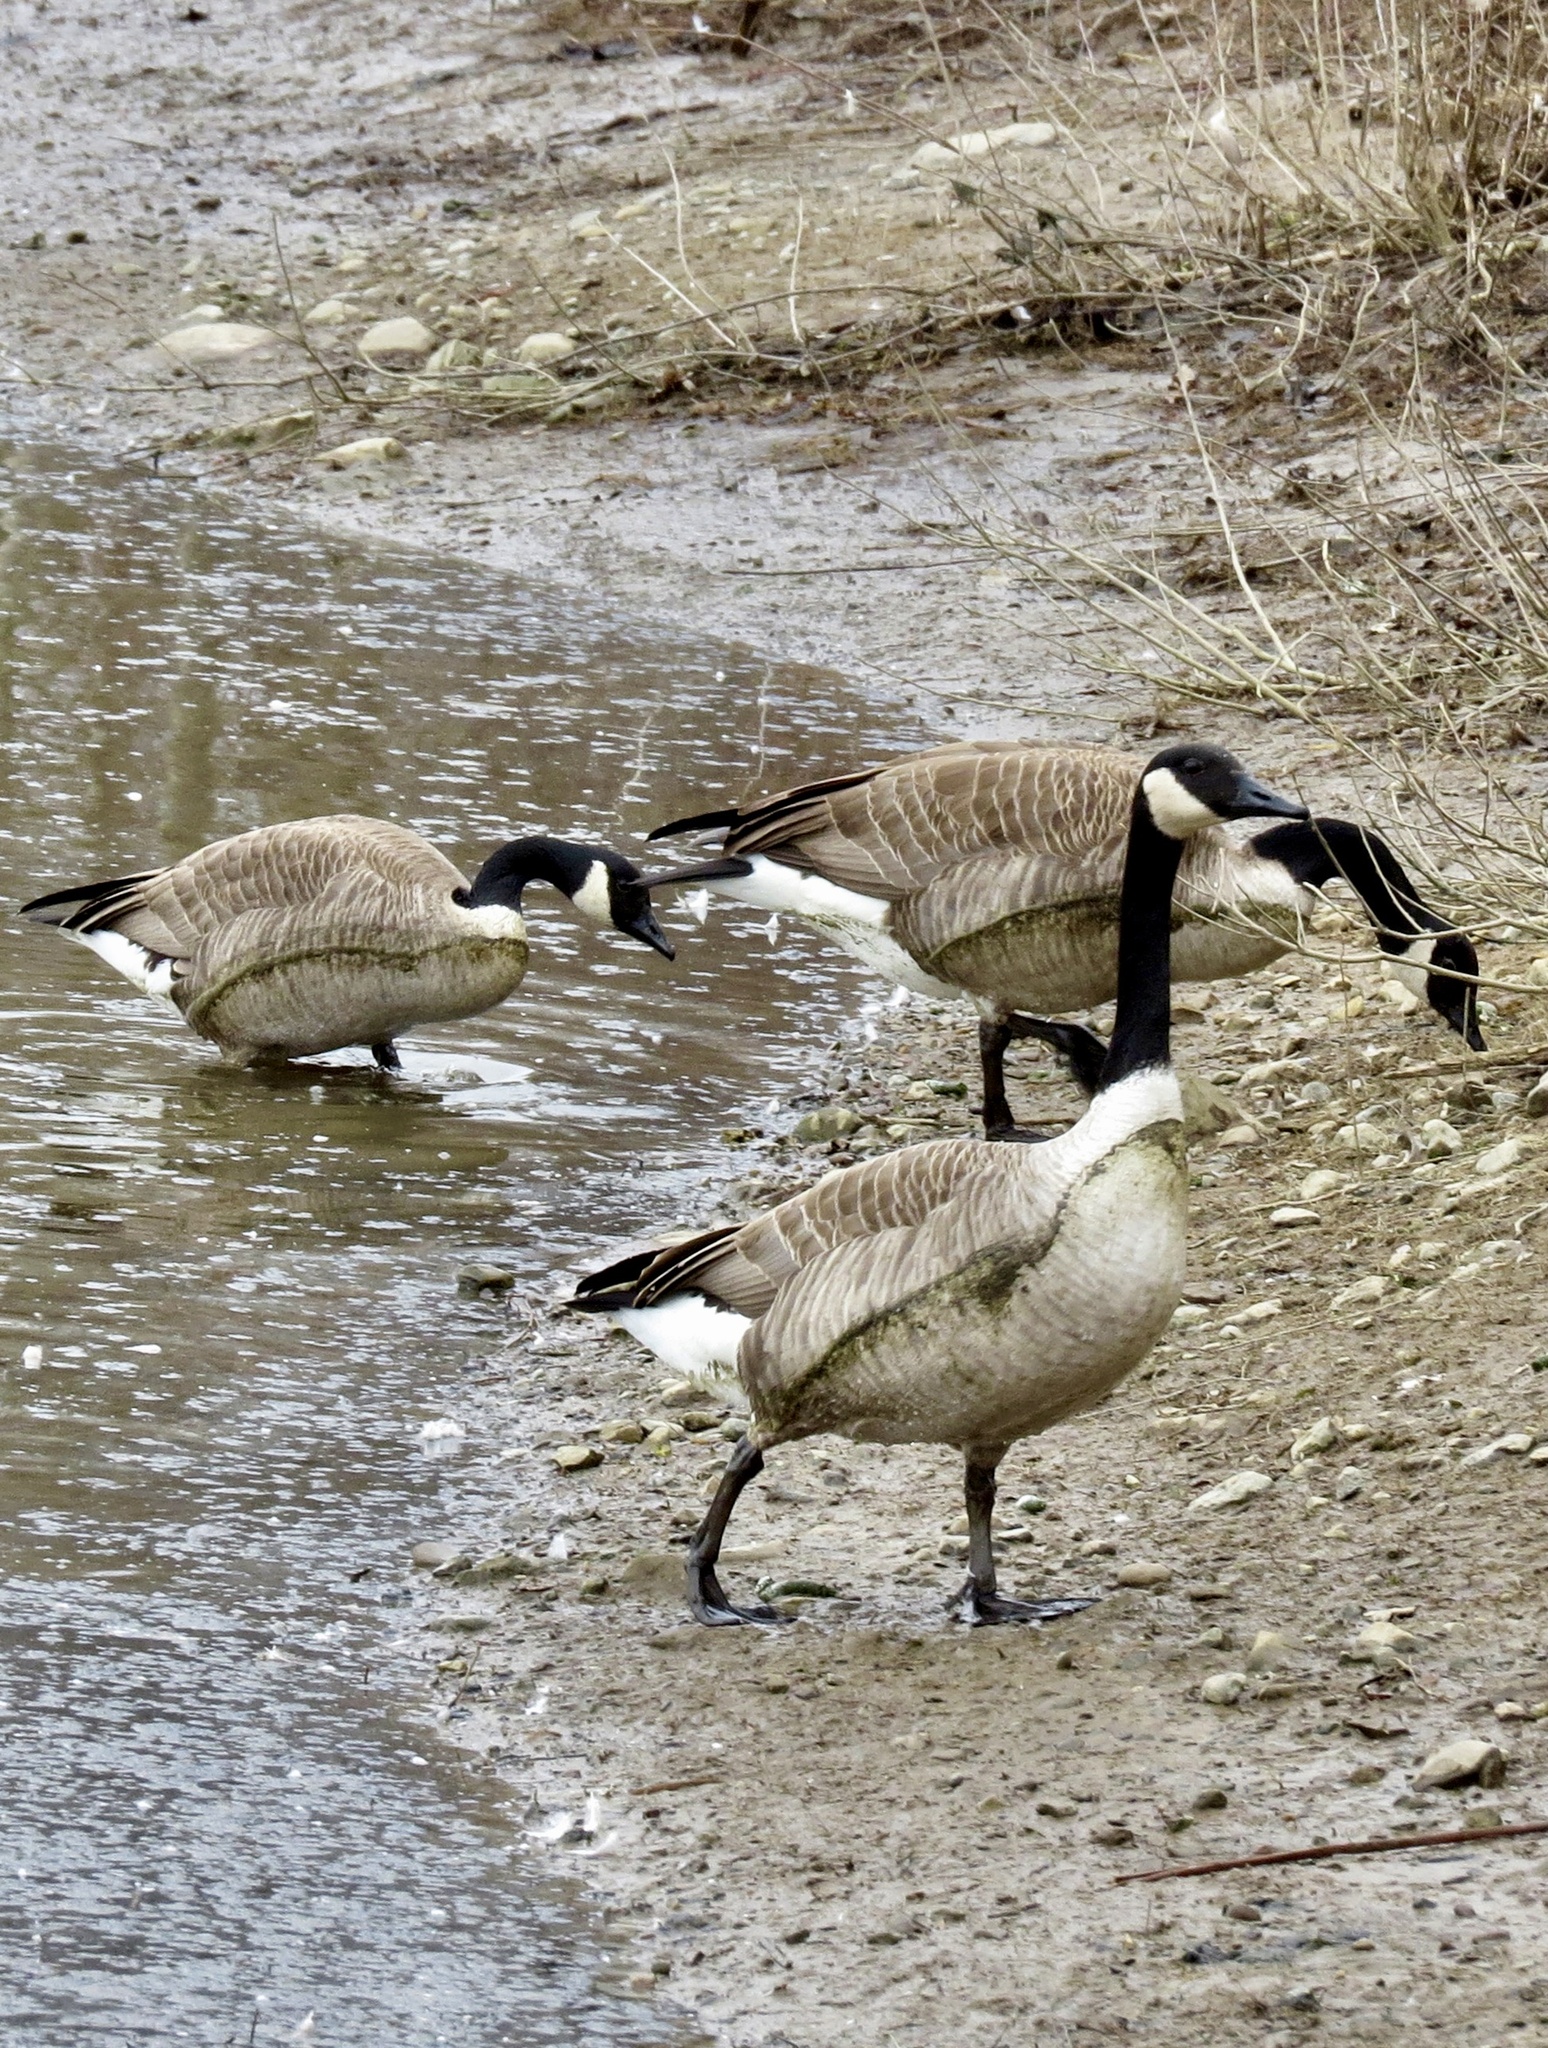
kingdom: Animalia
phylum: Chordata
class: Aves
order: Anseriformes
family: Anatidae
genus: Branta
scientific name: Branta canadensis
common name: Canada goose
